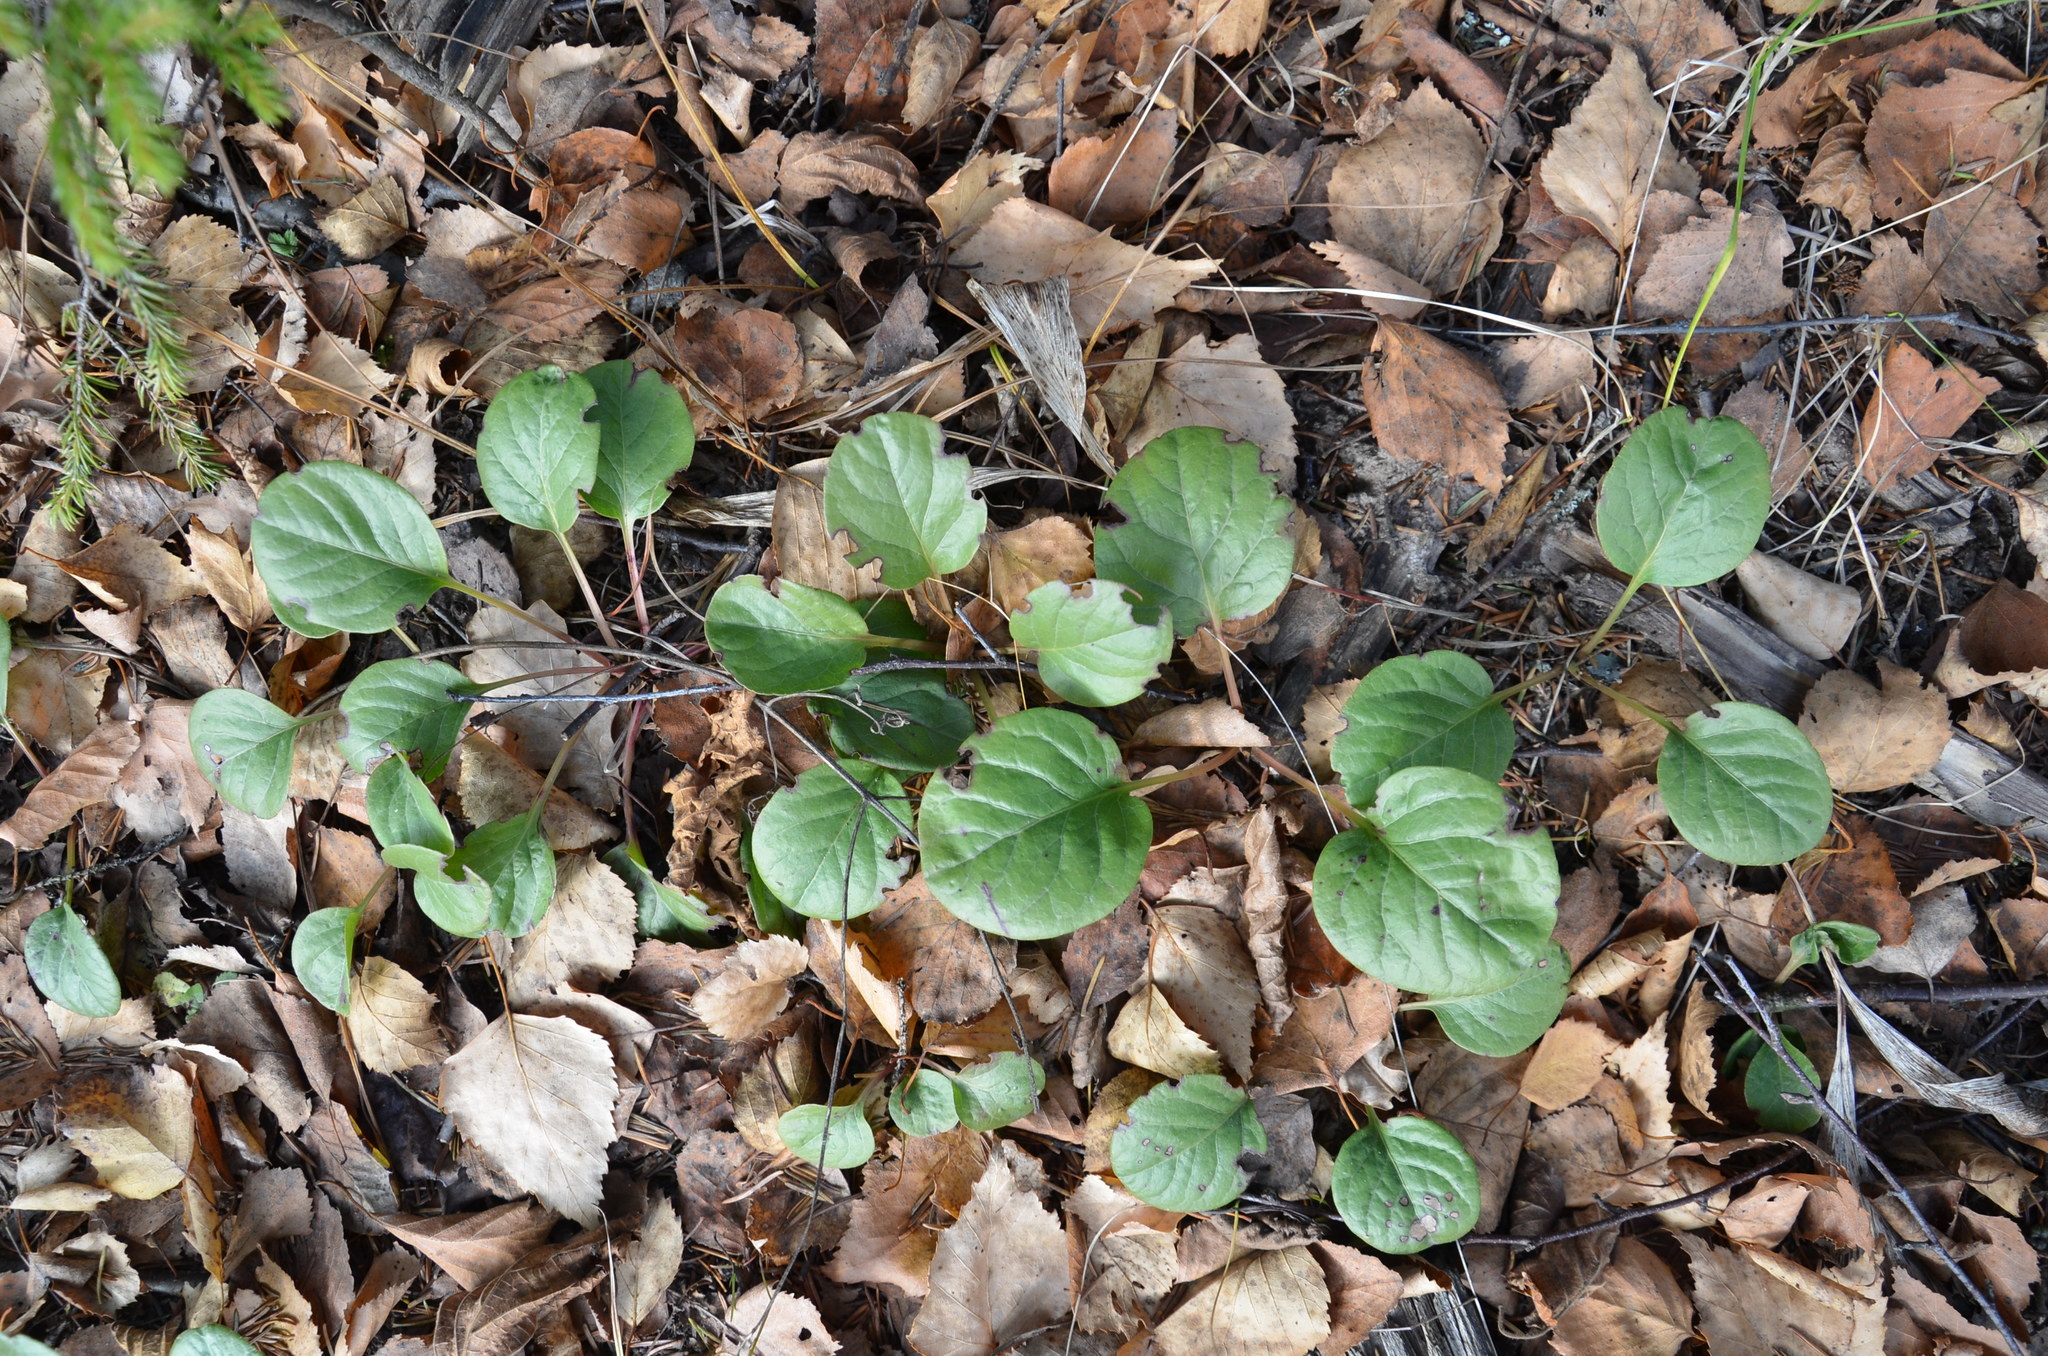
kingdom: Plantae
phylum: Tracheophyta
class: Magnoliopsida
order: Ericales
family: Ericaceae
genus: Pyrola
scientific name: Pyrola rotundifolia
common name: Round-leaved wintergreen
